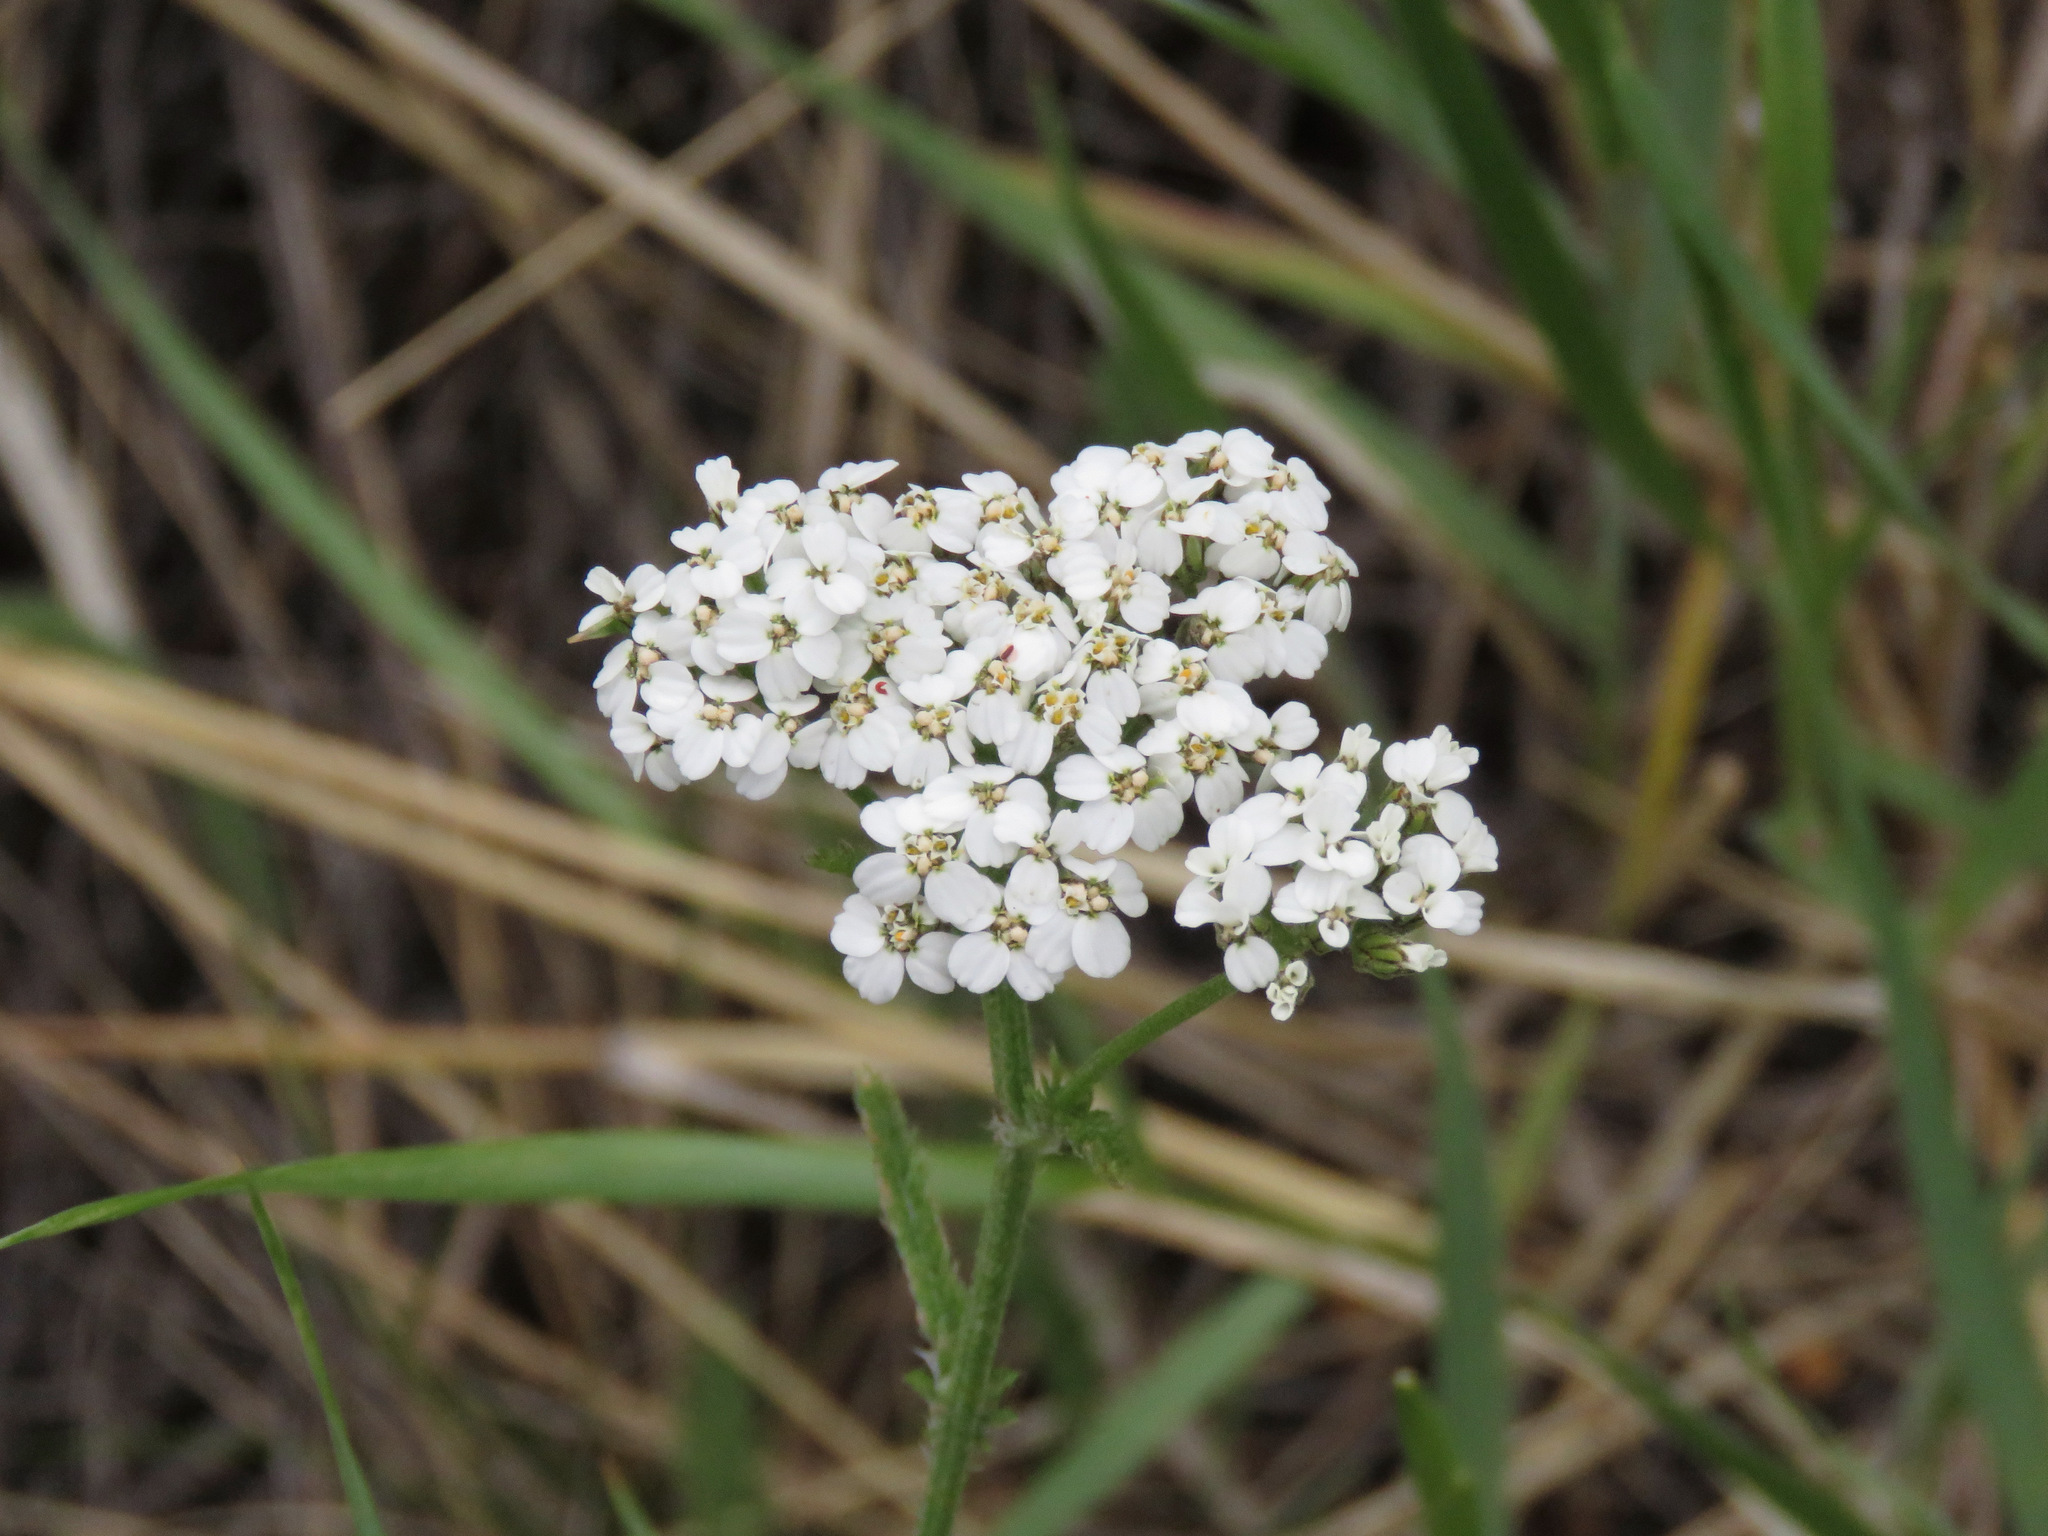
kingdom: Plantae
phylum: Tracheophyta
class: Magnoliopsida
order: Asterales
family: Asteraceae
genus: Achillea
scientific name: Achillea millefolium
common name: Yarrow
